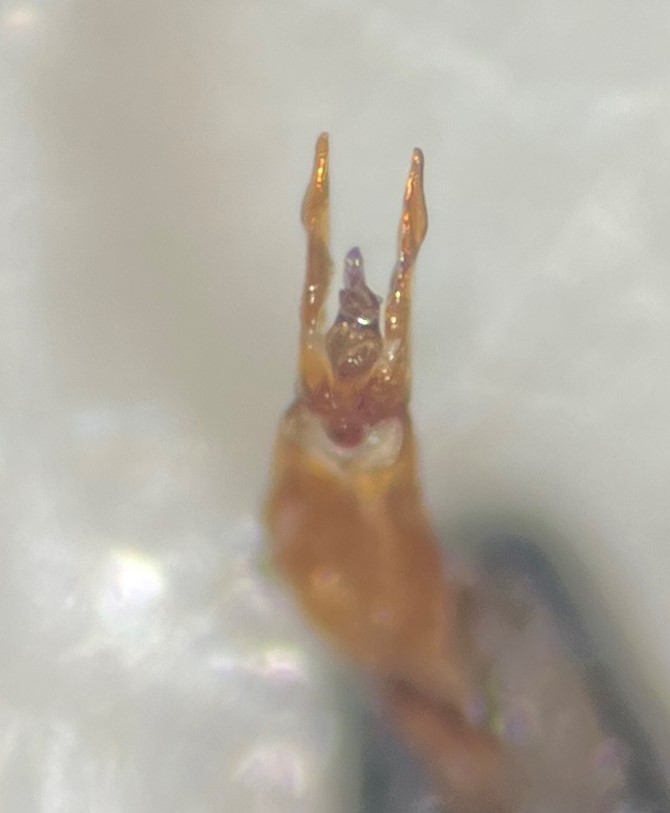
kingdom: Animalia
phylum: Arthropoda
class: Insecta
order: Coleoptera
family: Hydrochidae
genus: Hydrochus
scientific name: Hydrochus schereri
